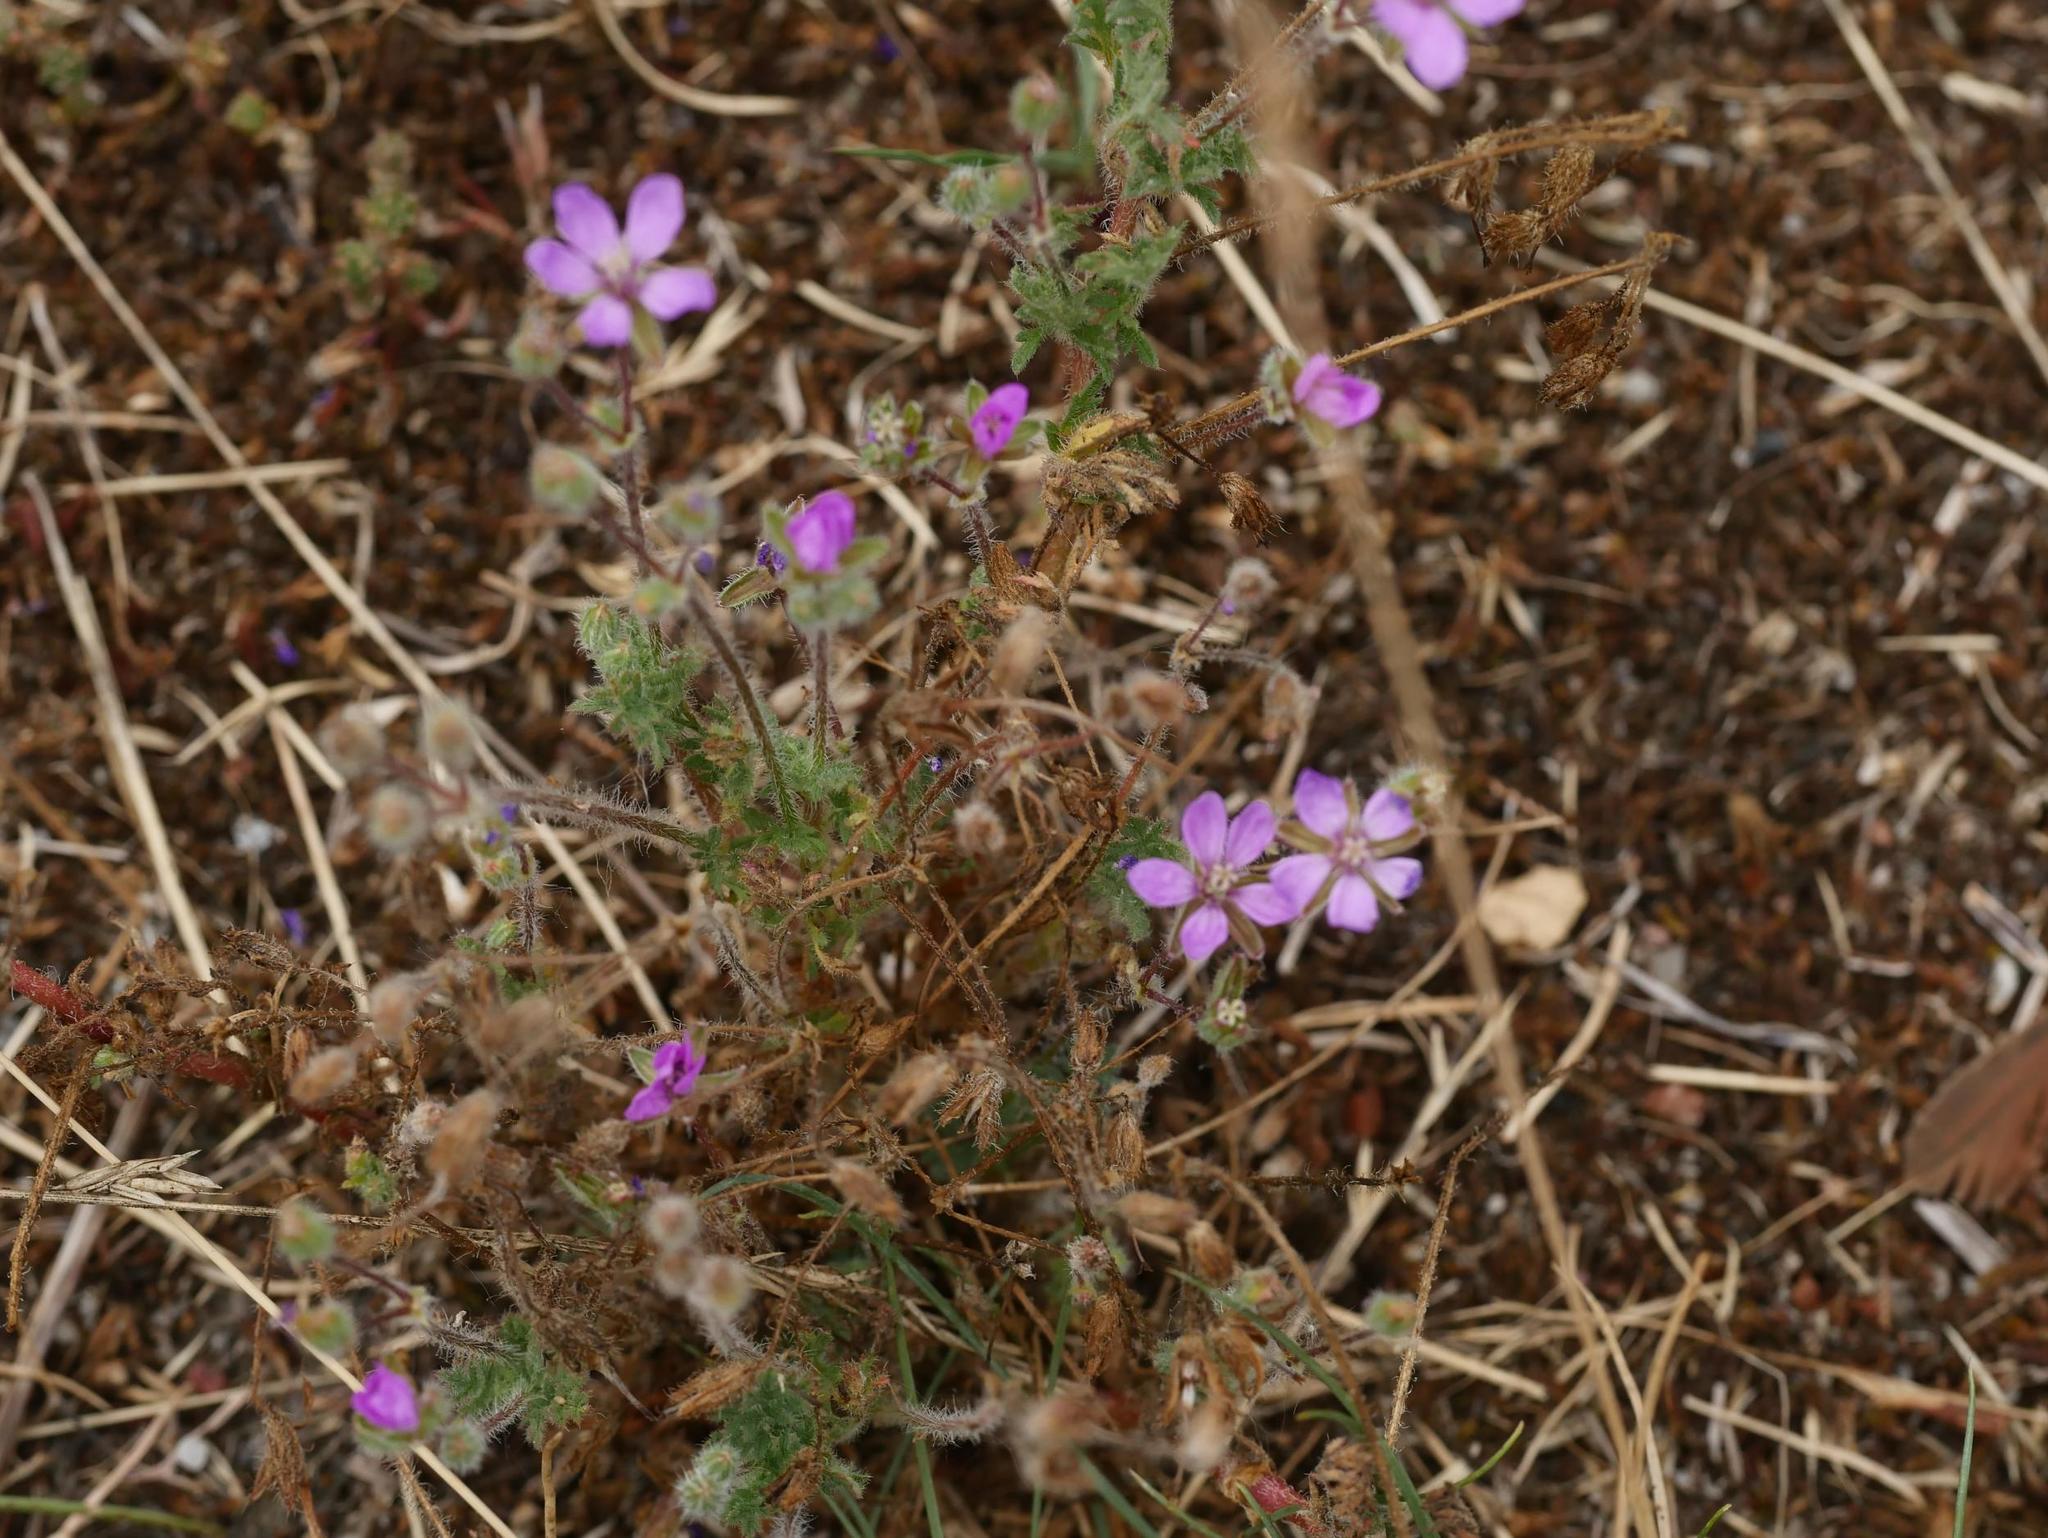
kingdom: Plantae
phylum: Tracheophyta
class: Magnoliopsida
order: Geraniales
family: Geraniaceae
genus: Erodium
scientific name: Erodium cicutarium
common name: Common stork's-bill
